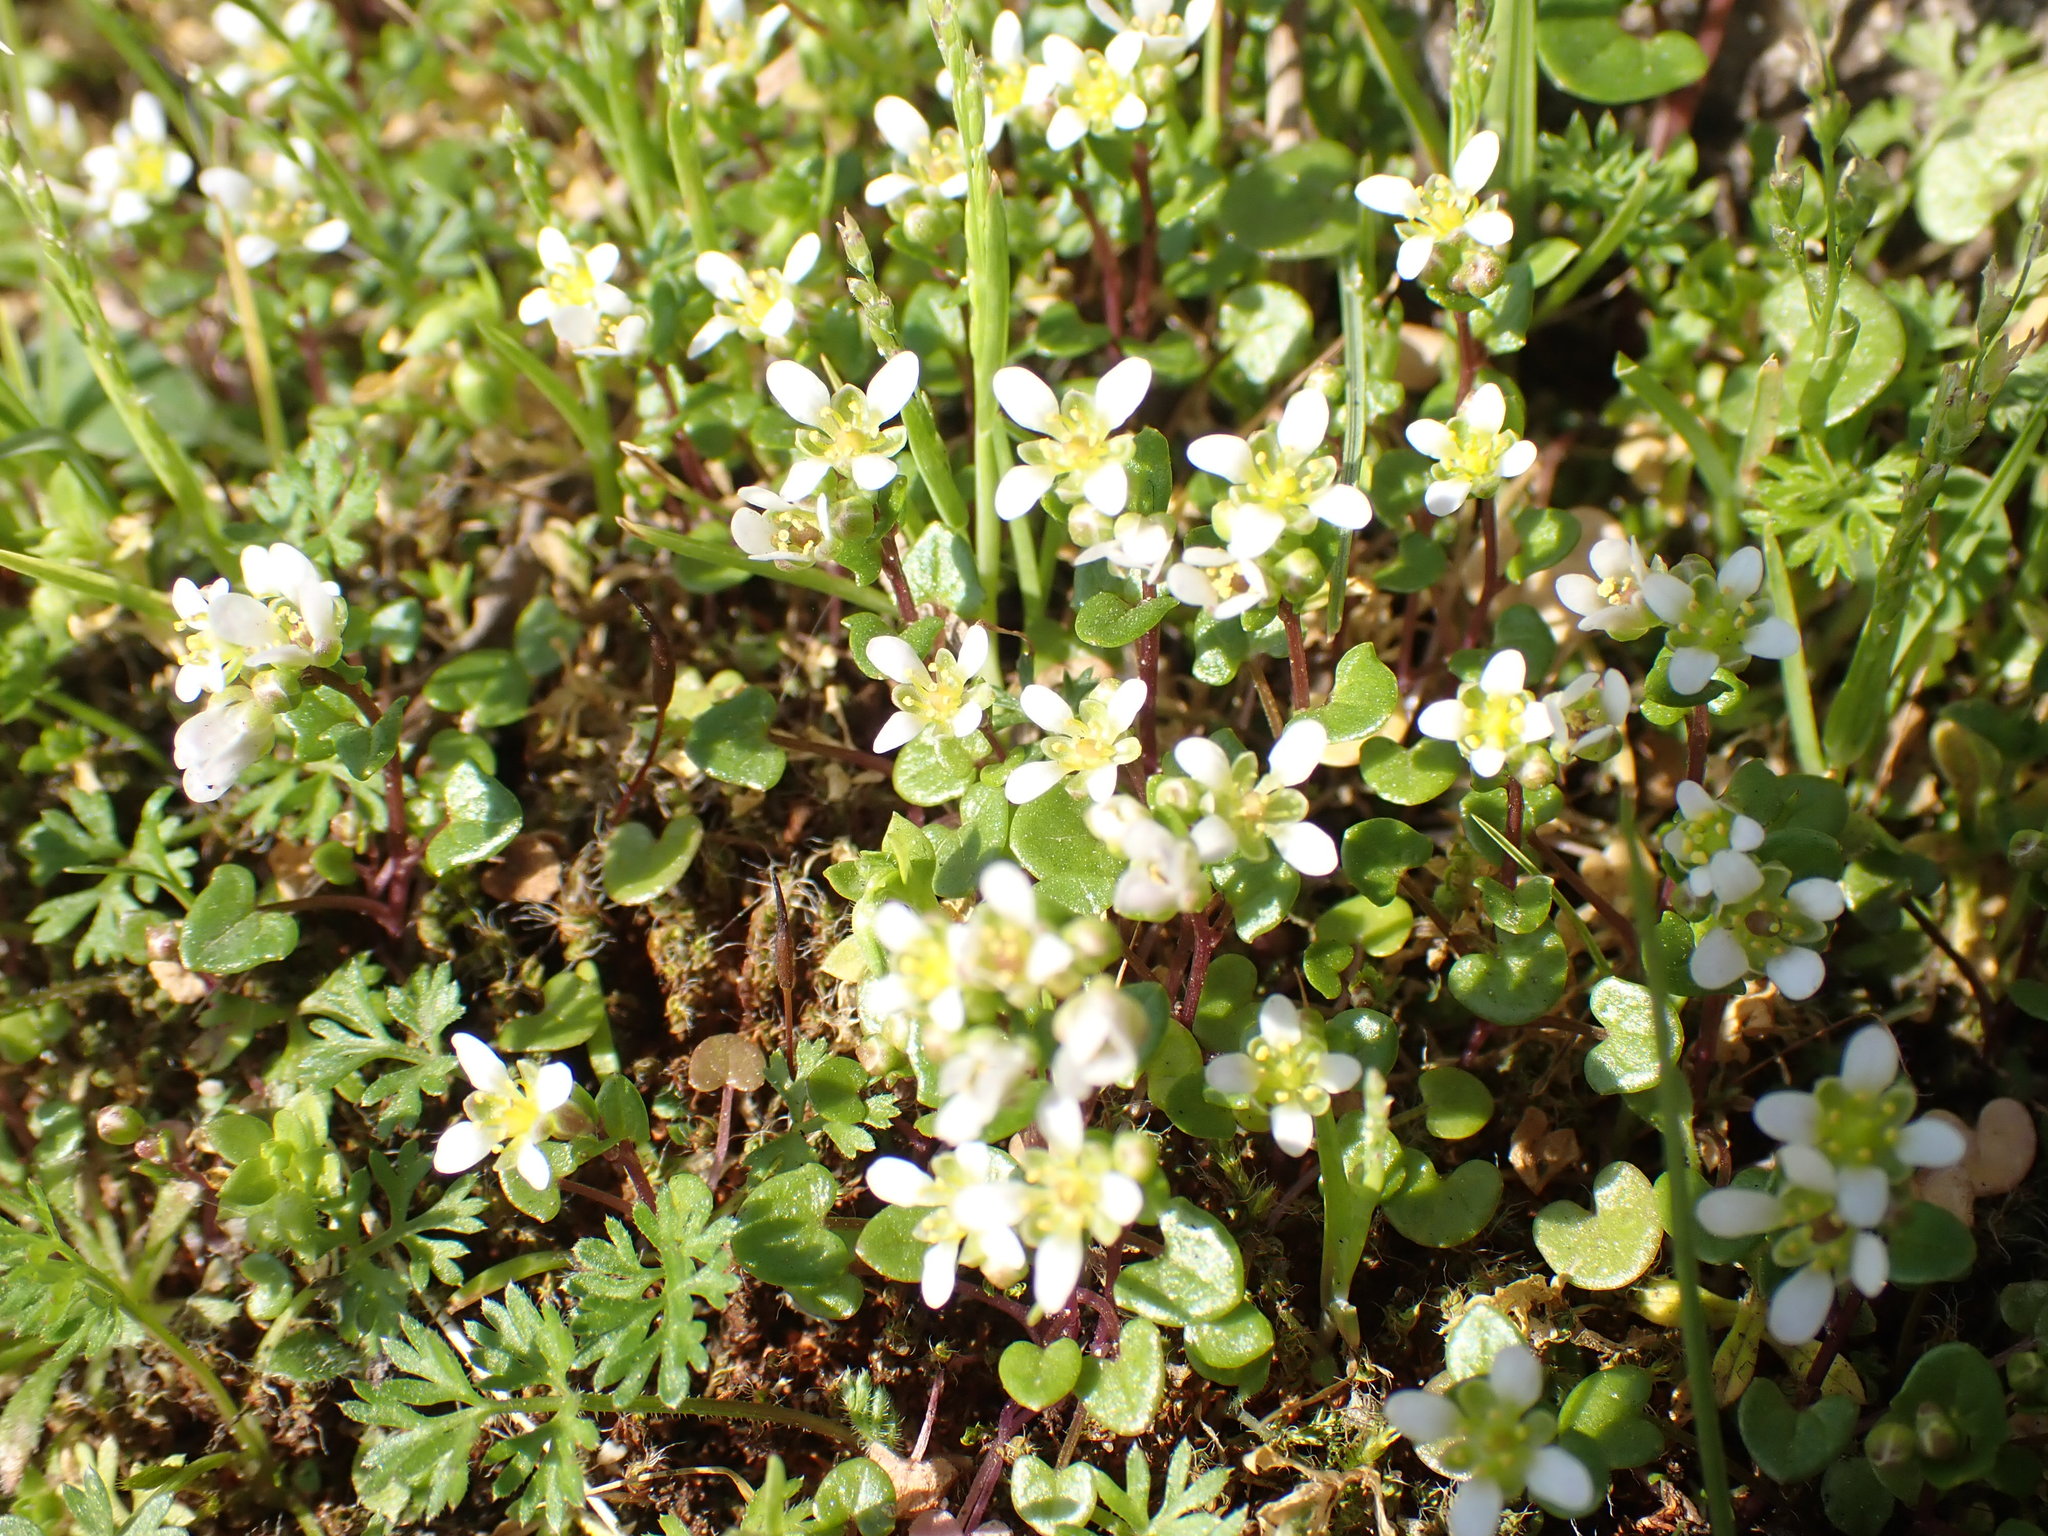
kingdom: Plantae
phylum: Tracheophyta
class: Magnoliopsida
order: Brassicales
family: Brassicaceae
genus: Cochlearia
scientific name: Cochlearia danica
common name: Early scurvygrass
